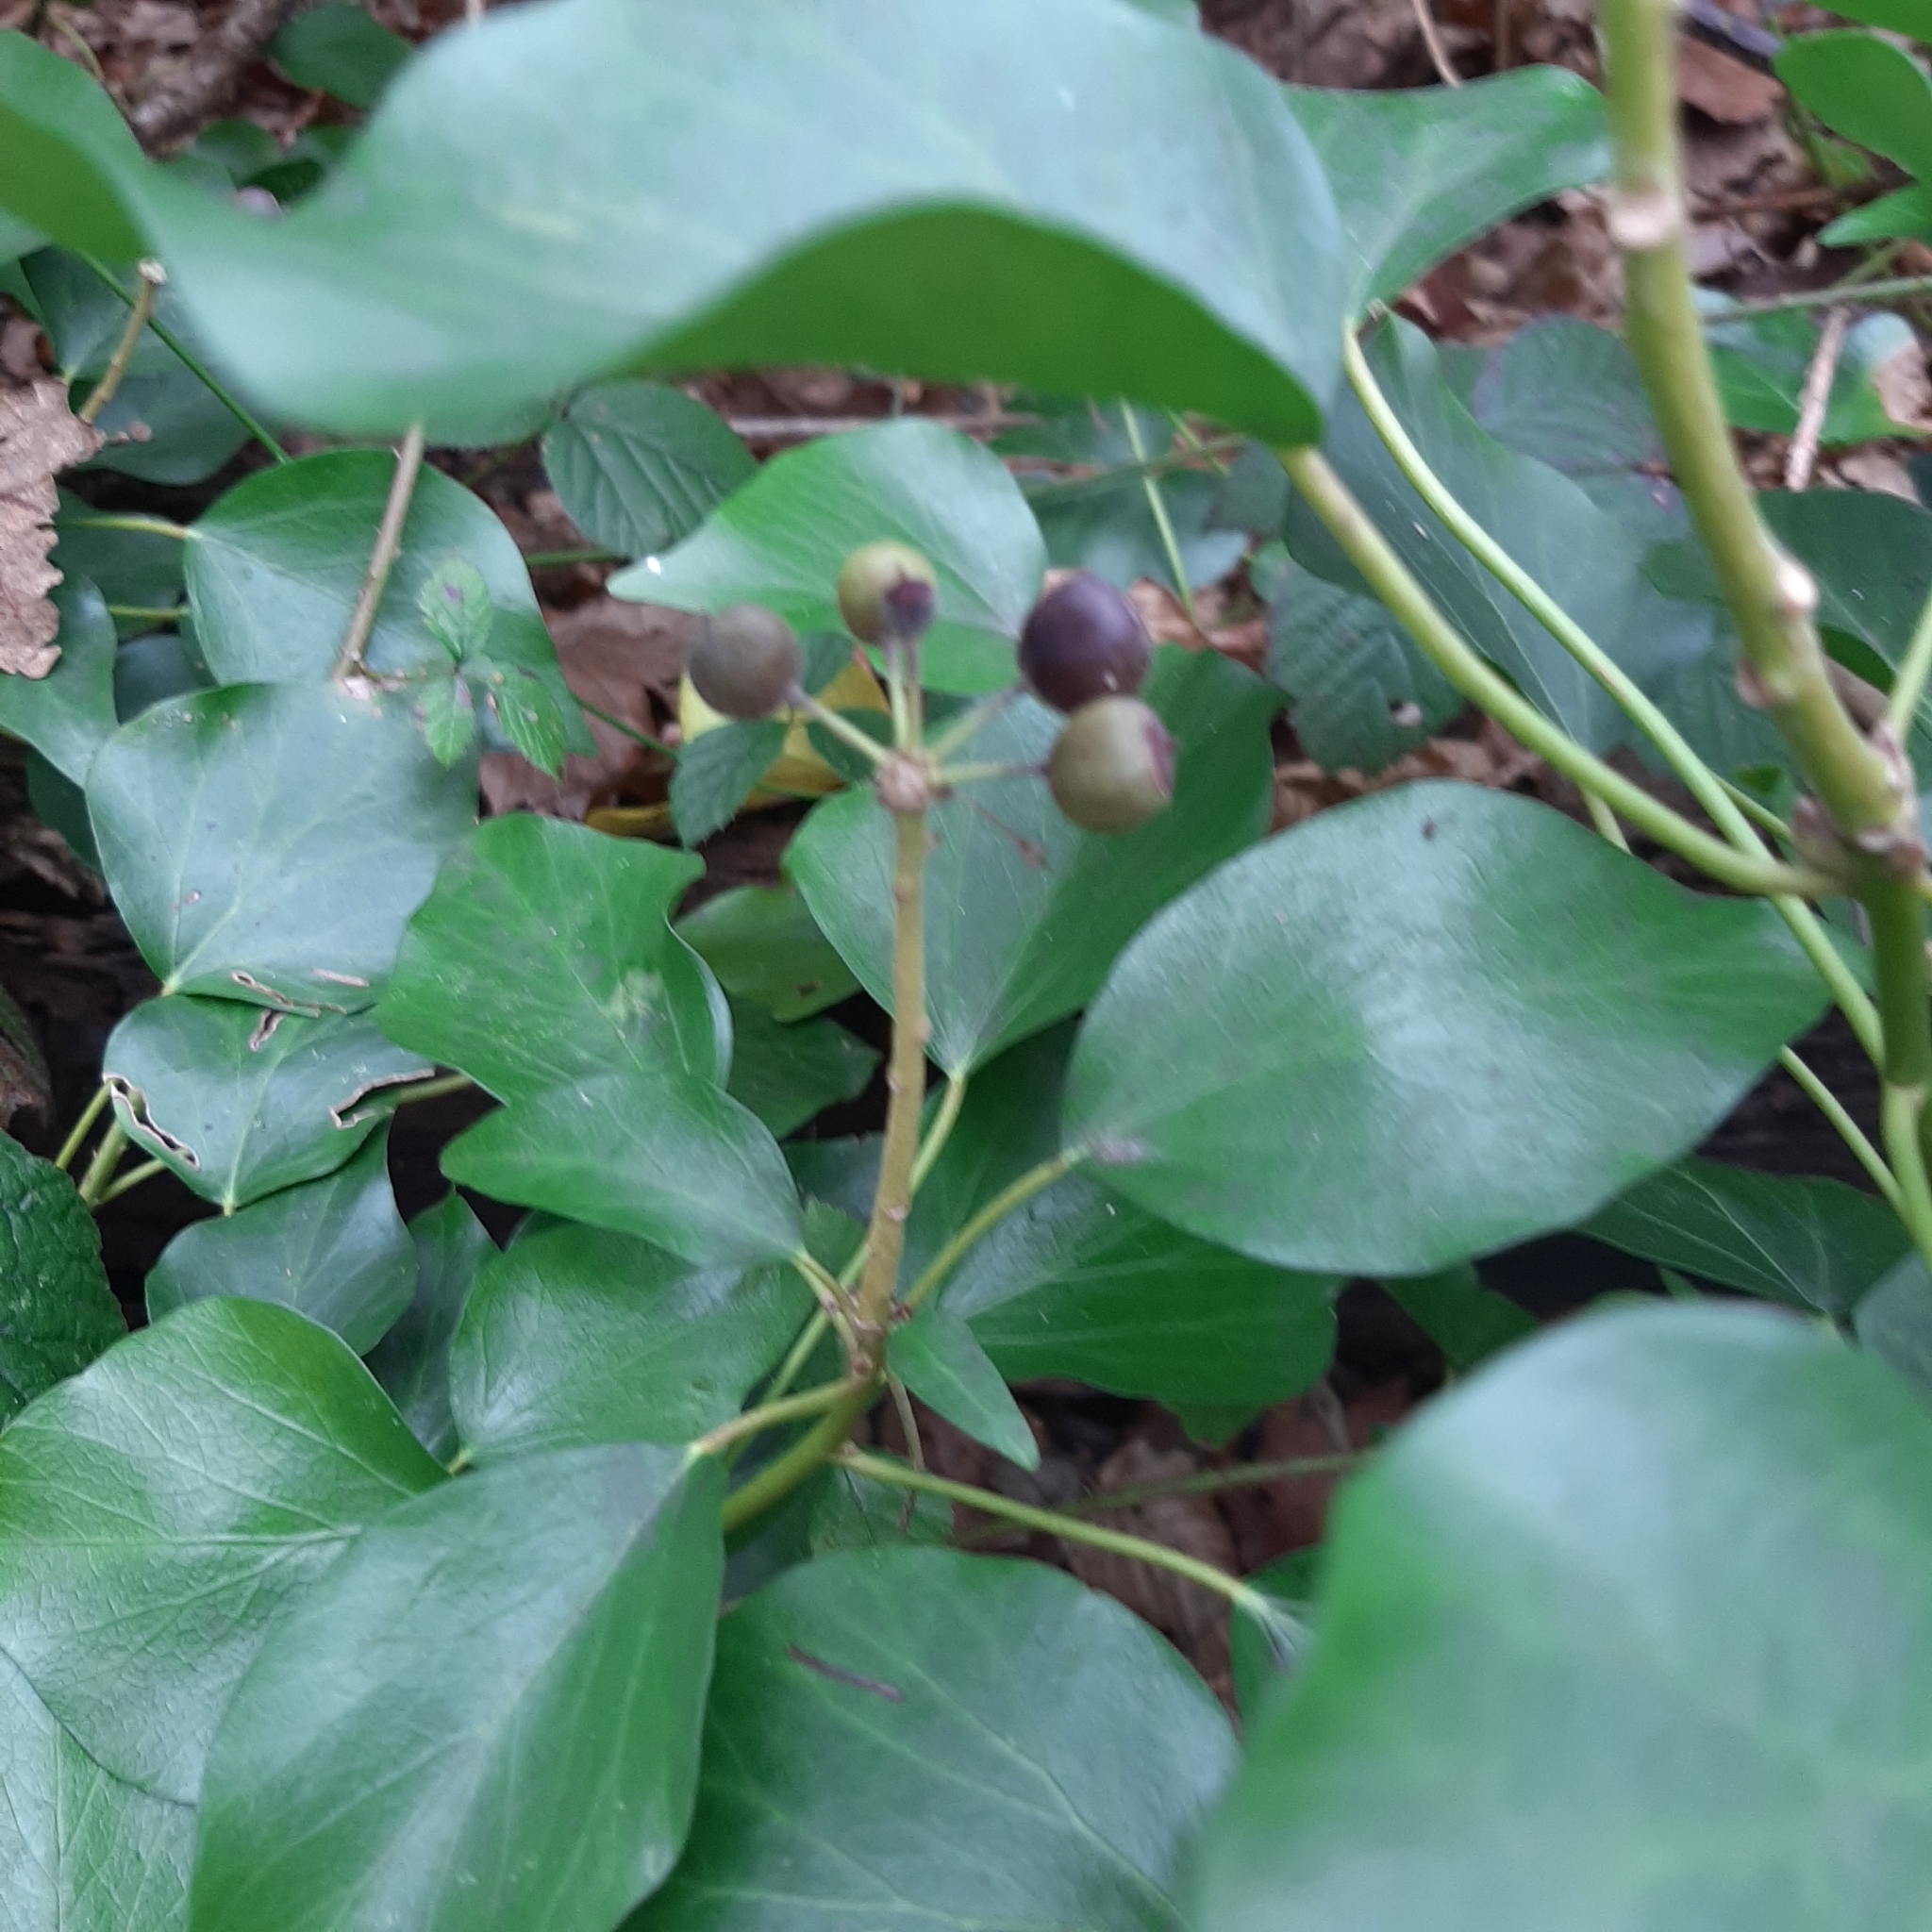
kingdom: Plantae
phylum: Tracheophyta
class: Magnoliopsida
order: Apiales
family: Araliaceae
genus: Hedera
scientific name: Hedera helix
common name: Ivy
